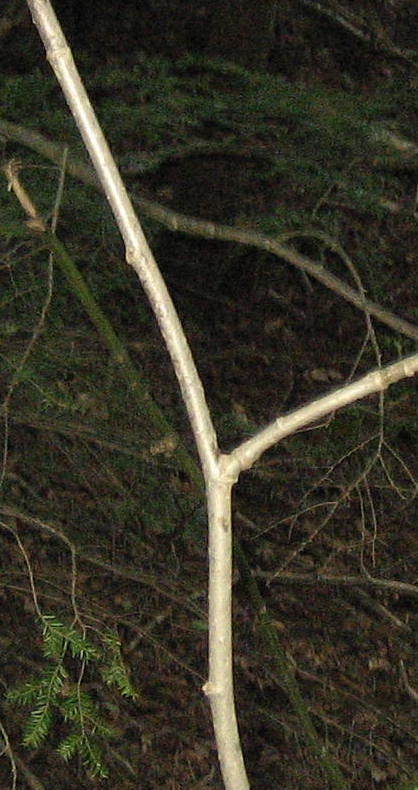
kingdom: Plantae
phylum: Tracheophyta
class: Magnoliopsida
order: Malvales
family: Malvaceae
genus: Tilia
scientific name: Tilia americana
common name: Basswood
